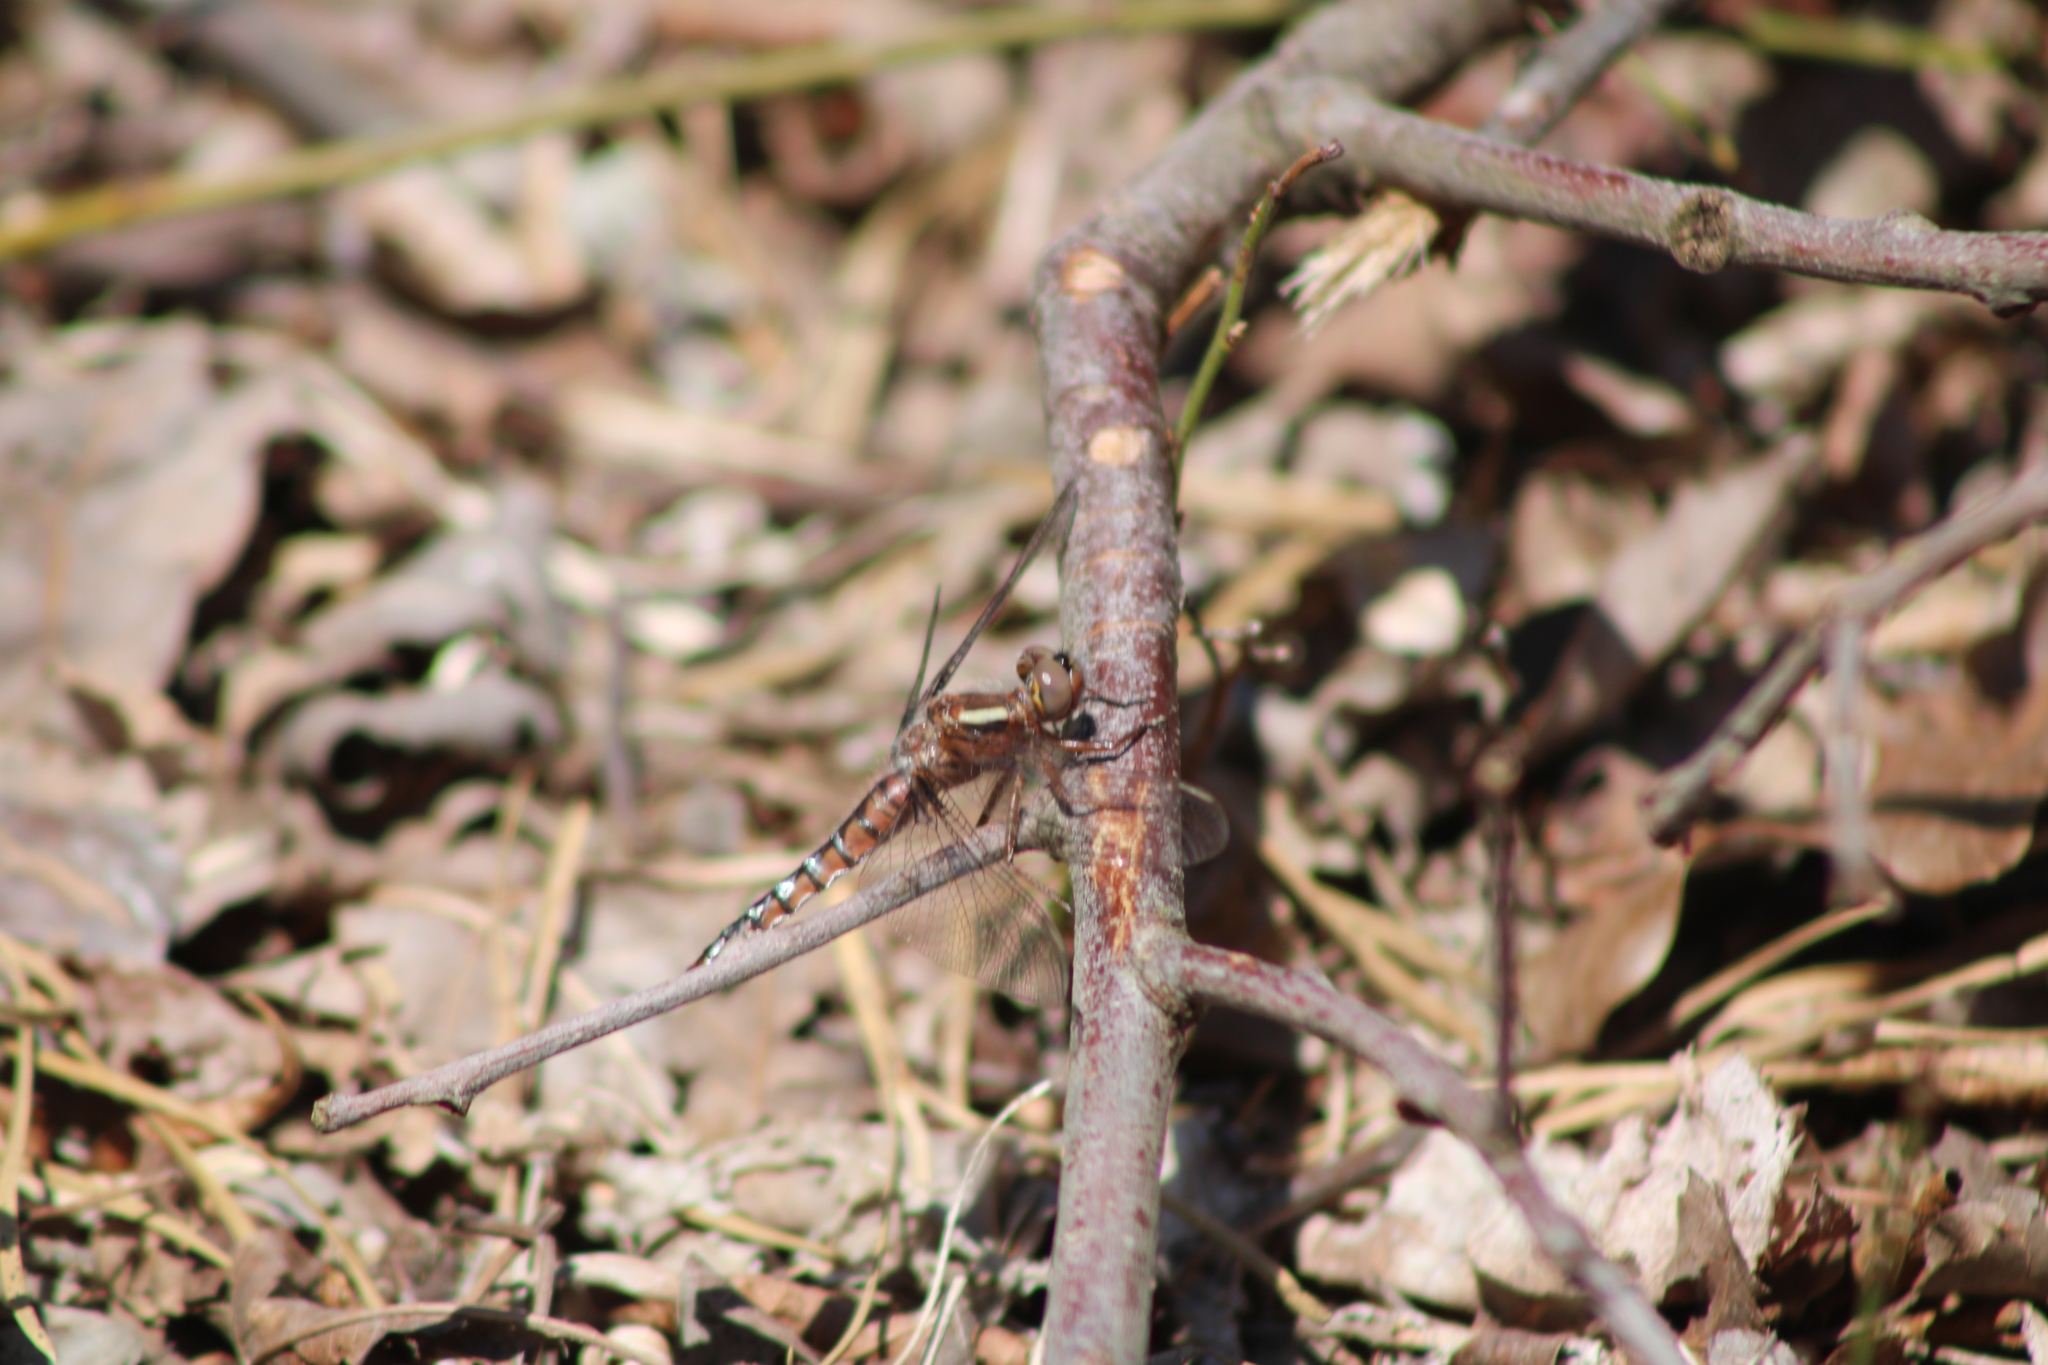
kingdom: Animalia
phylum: Arthropoda
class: Insecta
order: Odonata
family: Libellulidae
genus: Ladona
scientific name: Ladona deplanata
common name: Blue corporal
